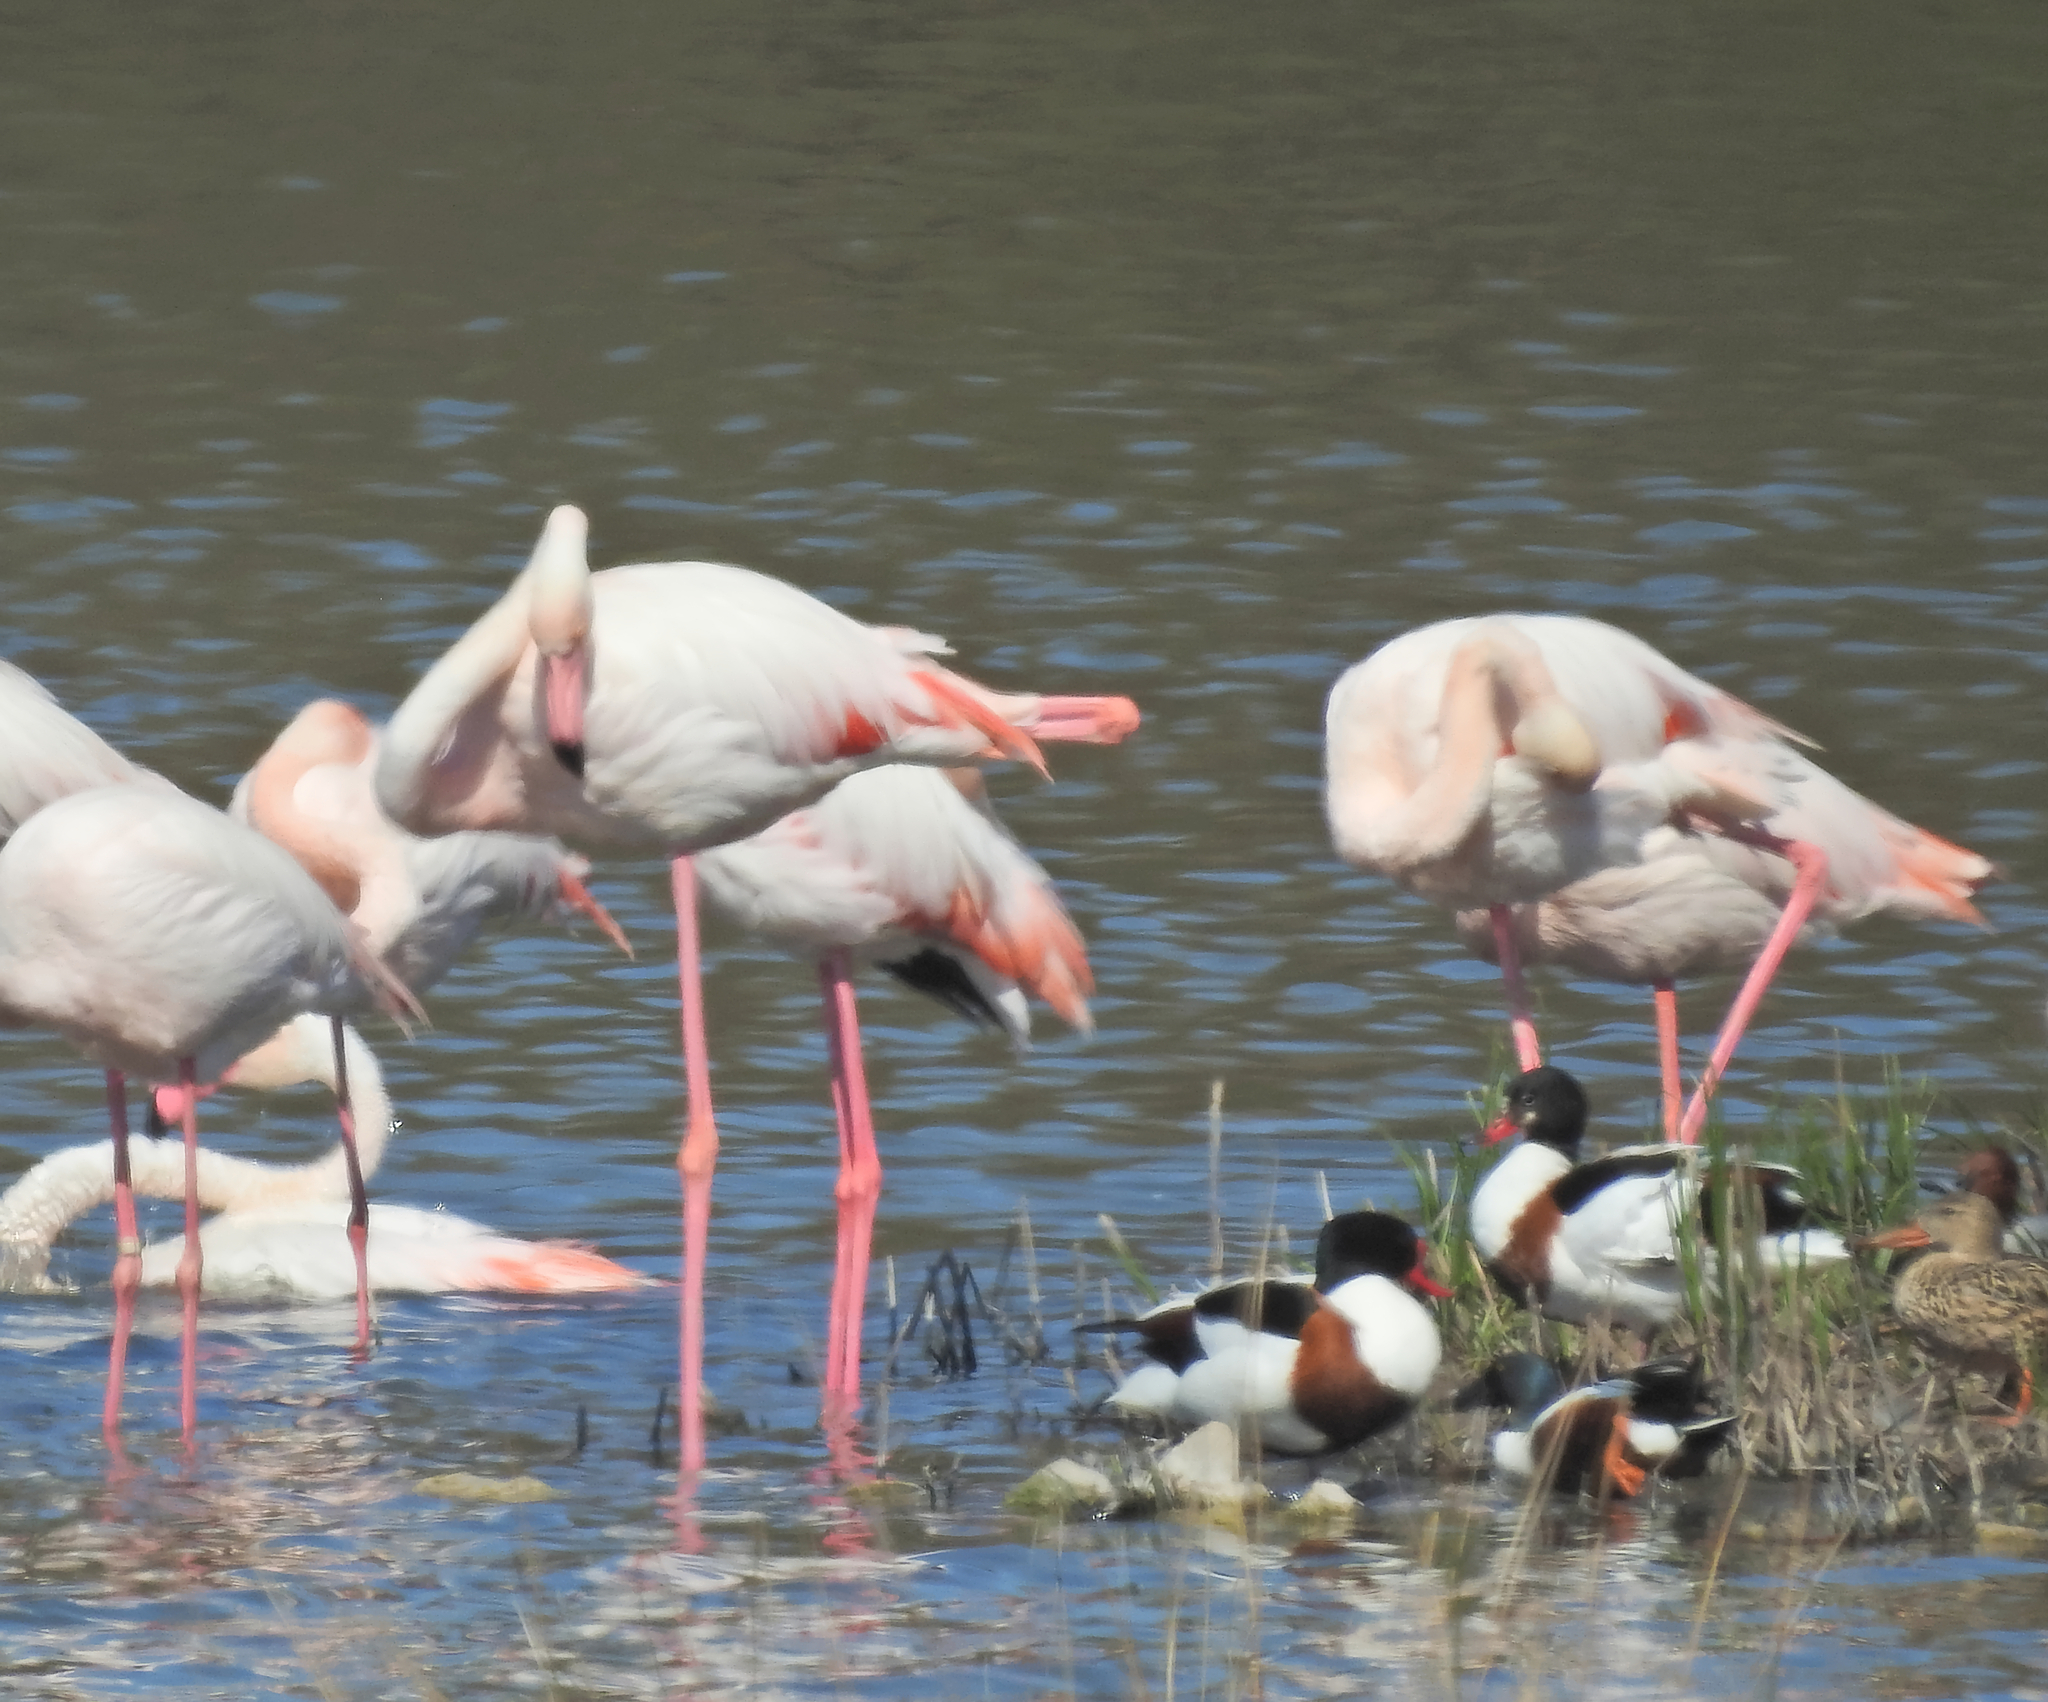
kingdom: Animalia
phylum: Chordata
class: Aves
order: Anseriformes
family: Anatidae
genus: Spatula
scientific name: Spatula clypeata
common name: Northern shoveler
